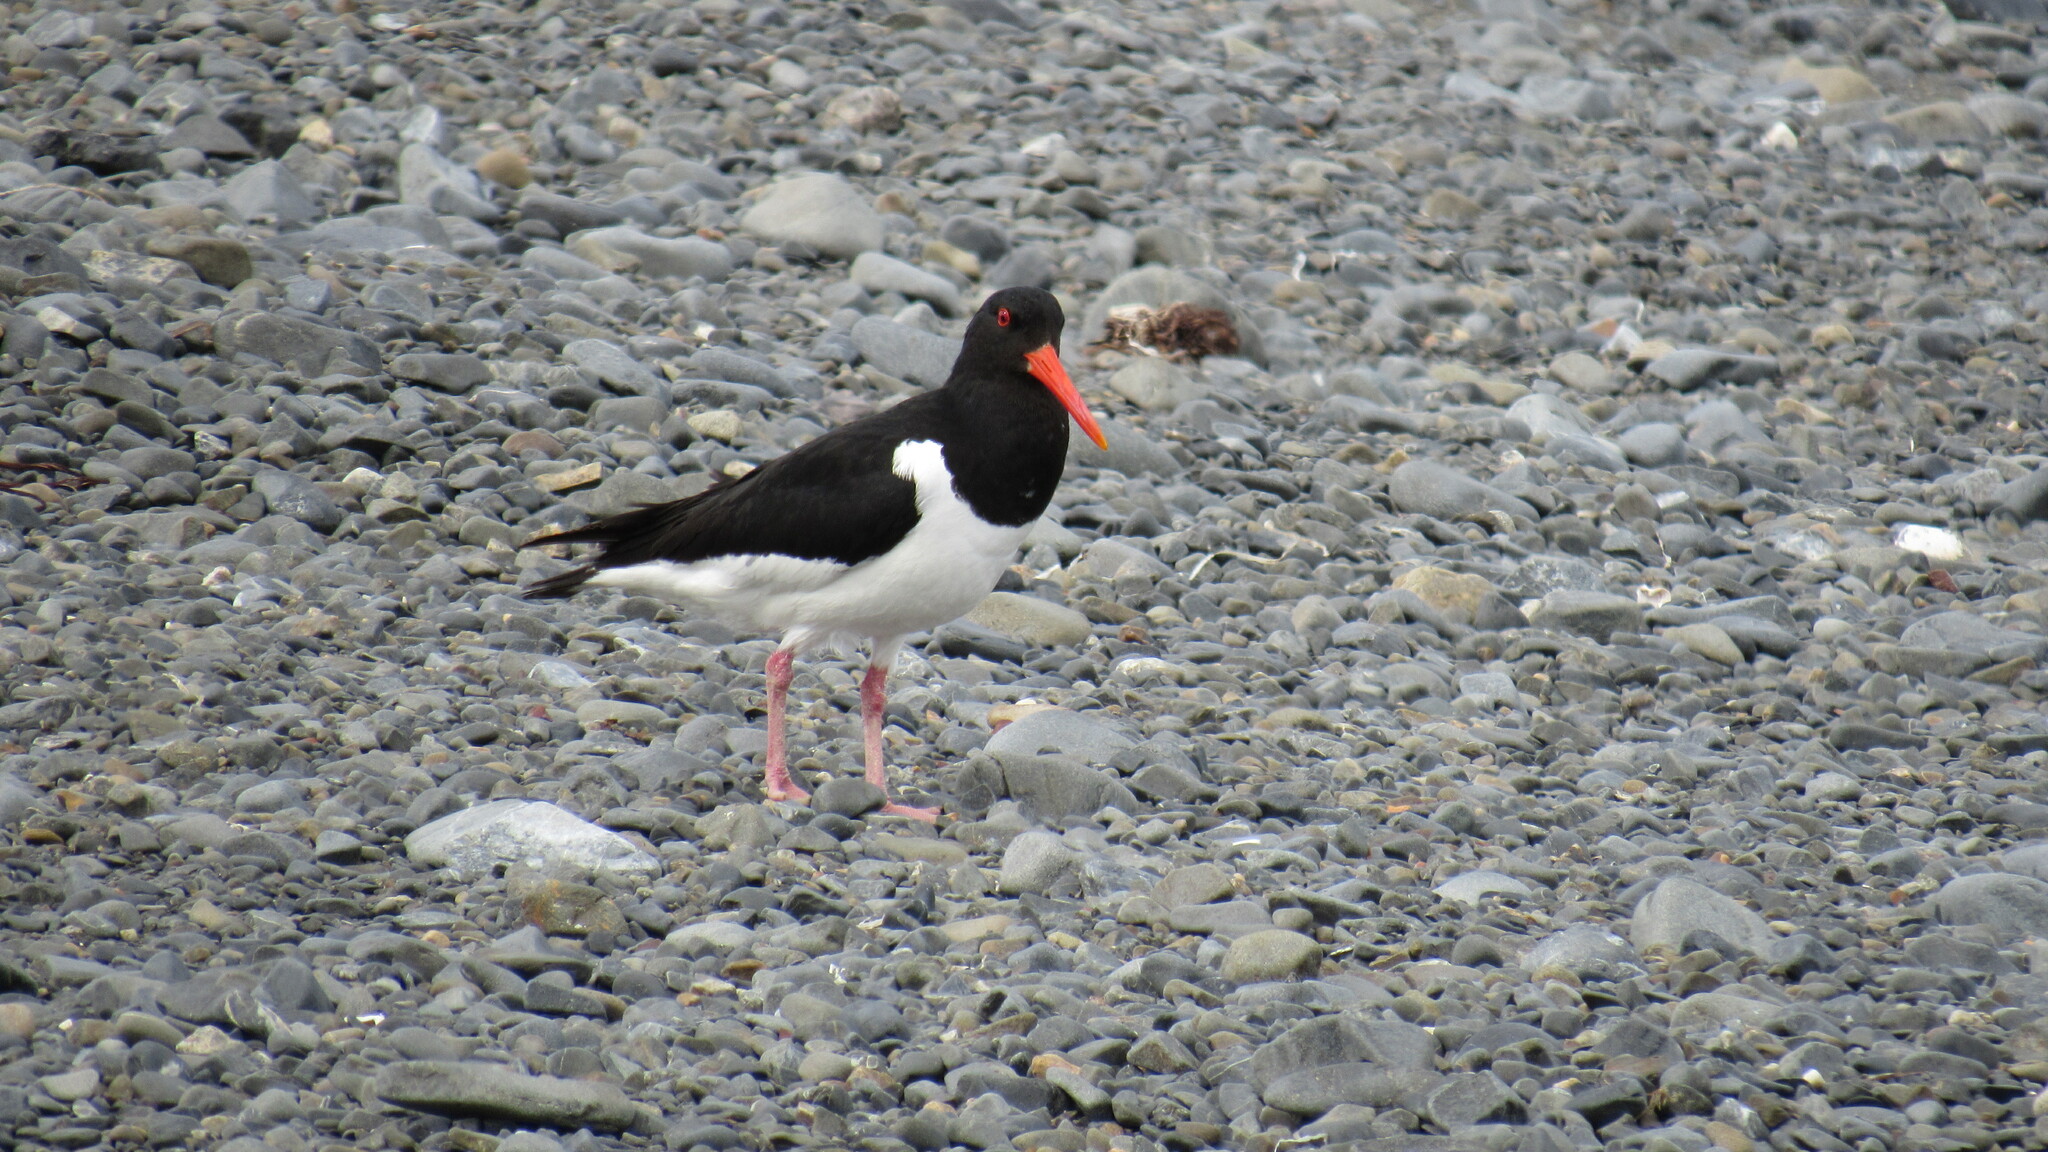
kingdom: Animalia
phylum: Chordata
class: Aves
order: Charadriiformes
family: Haematopodidae
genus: Haematopus
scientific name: Haematopus ostralegus
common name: Eurasian oystercatcher
